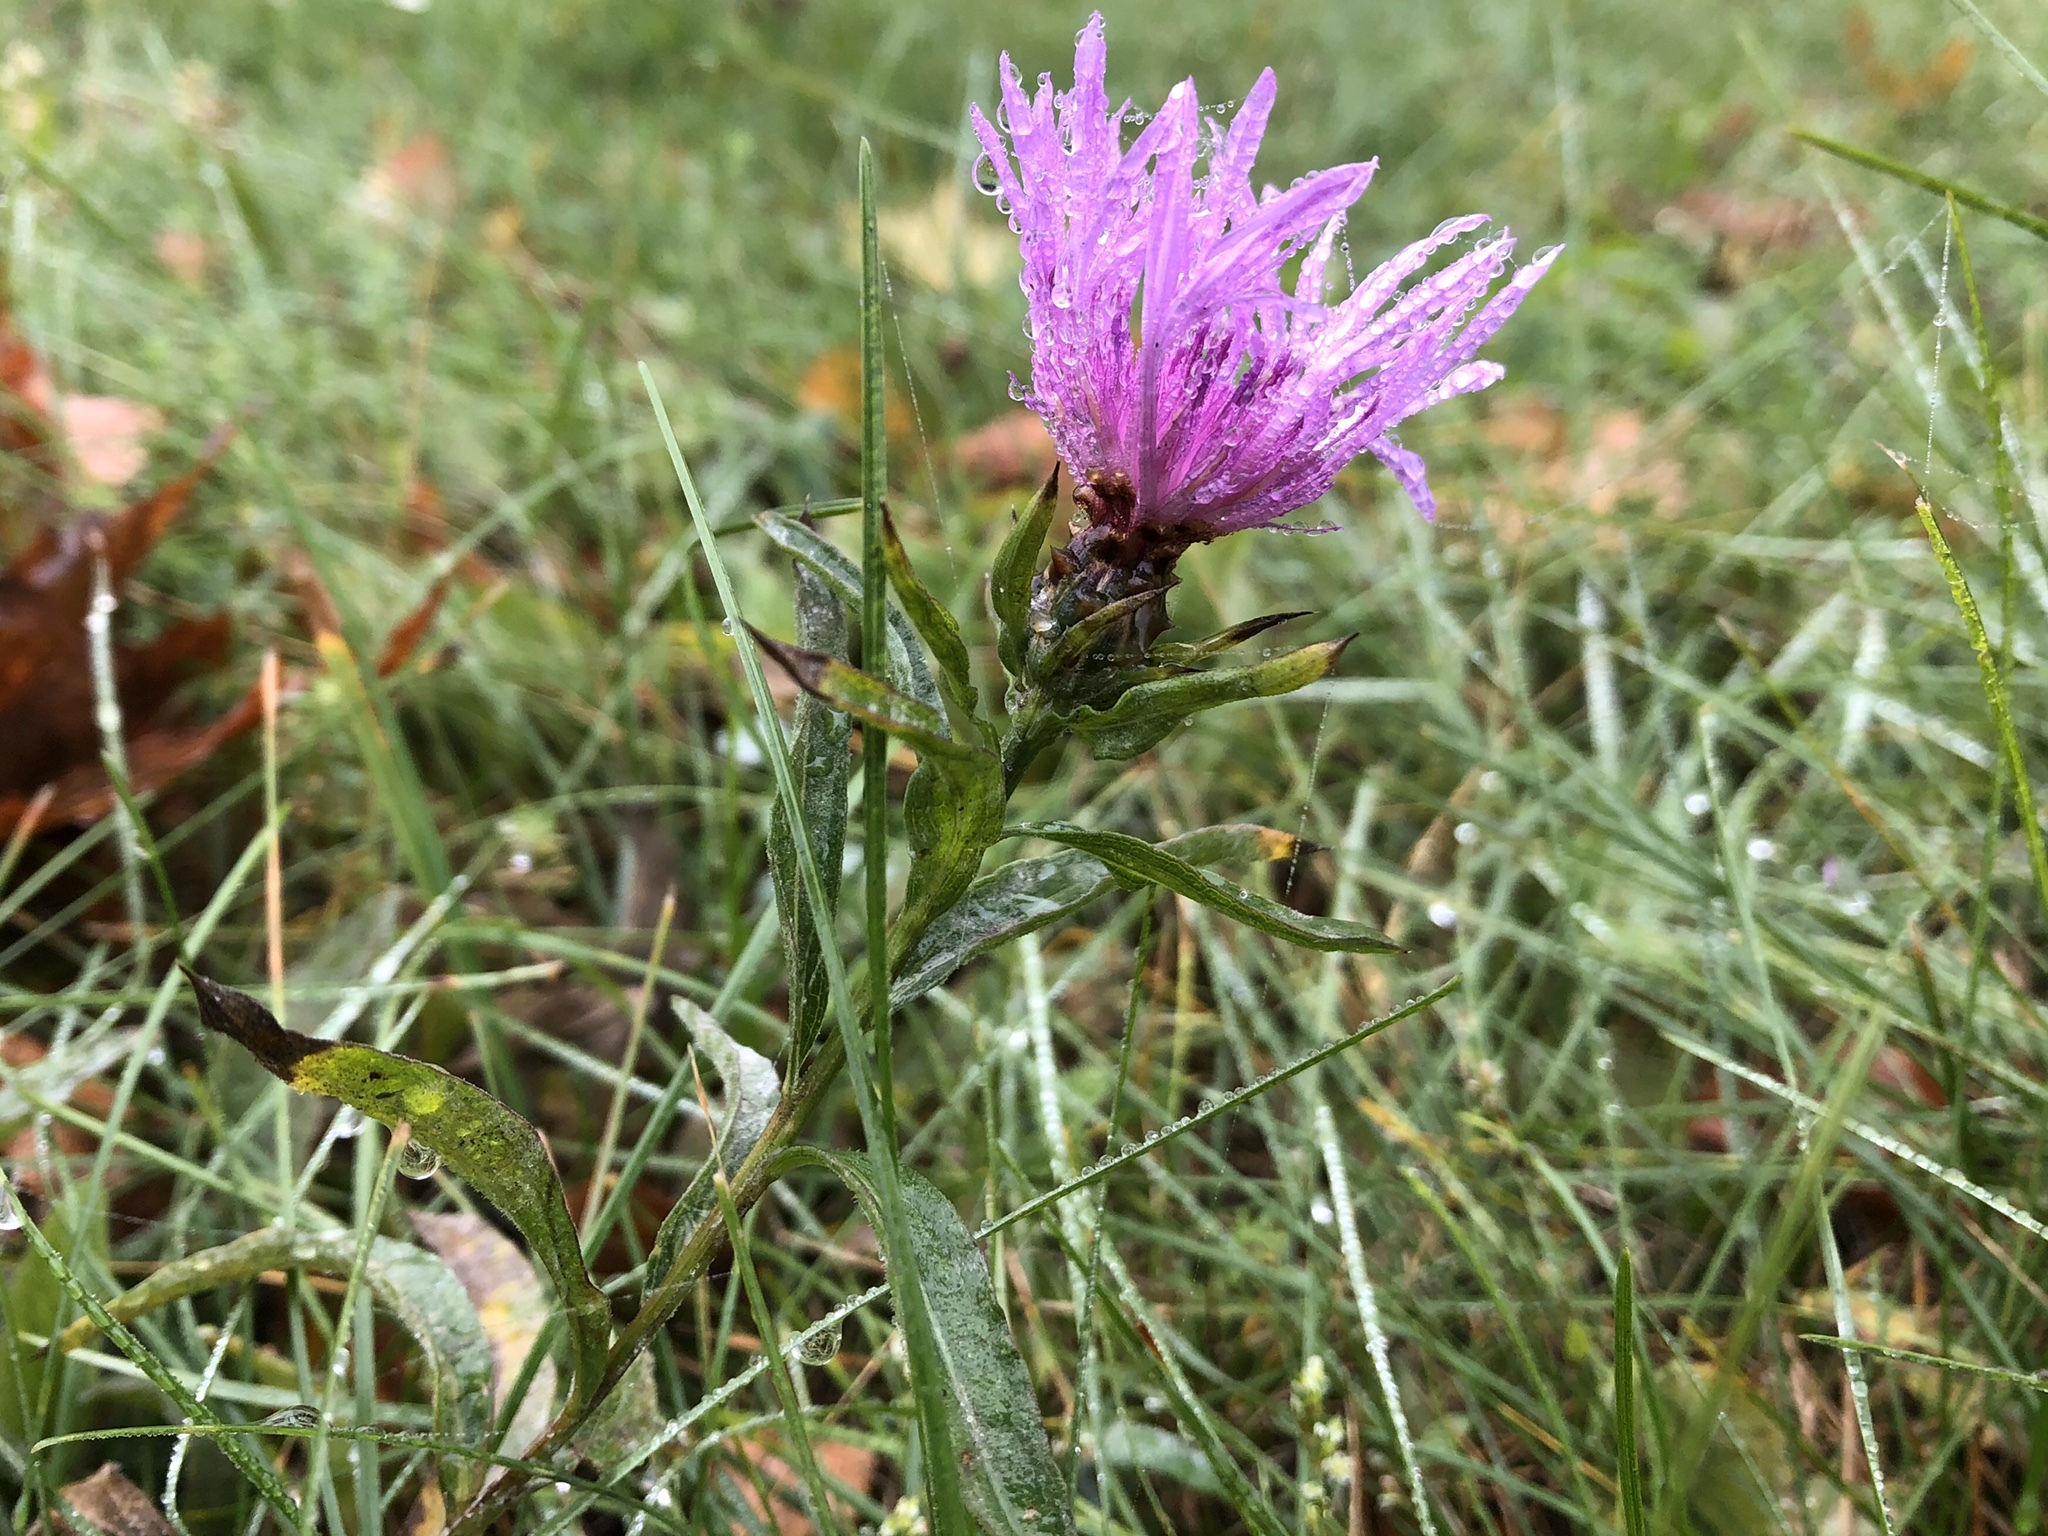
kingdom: Plantae
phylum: Tracheophyta
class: Magnoliopsida
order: Asterales
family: Asteraceae
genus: Centaurea
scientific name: Centaurea jacea
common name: Brown knapweed
